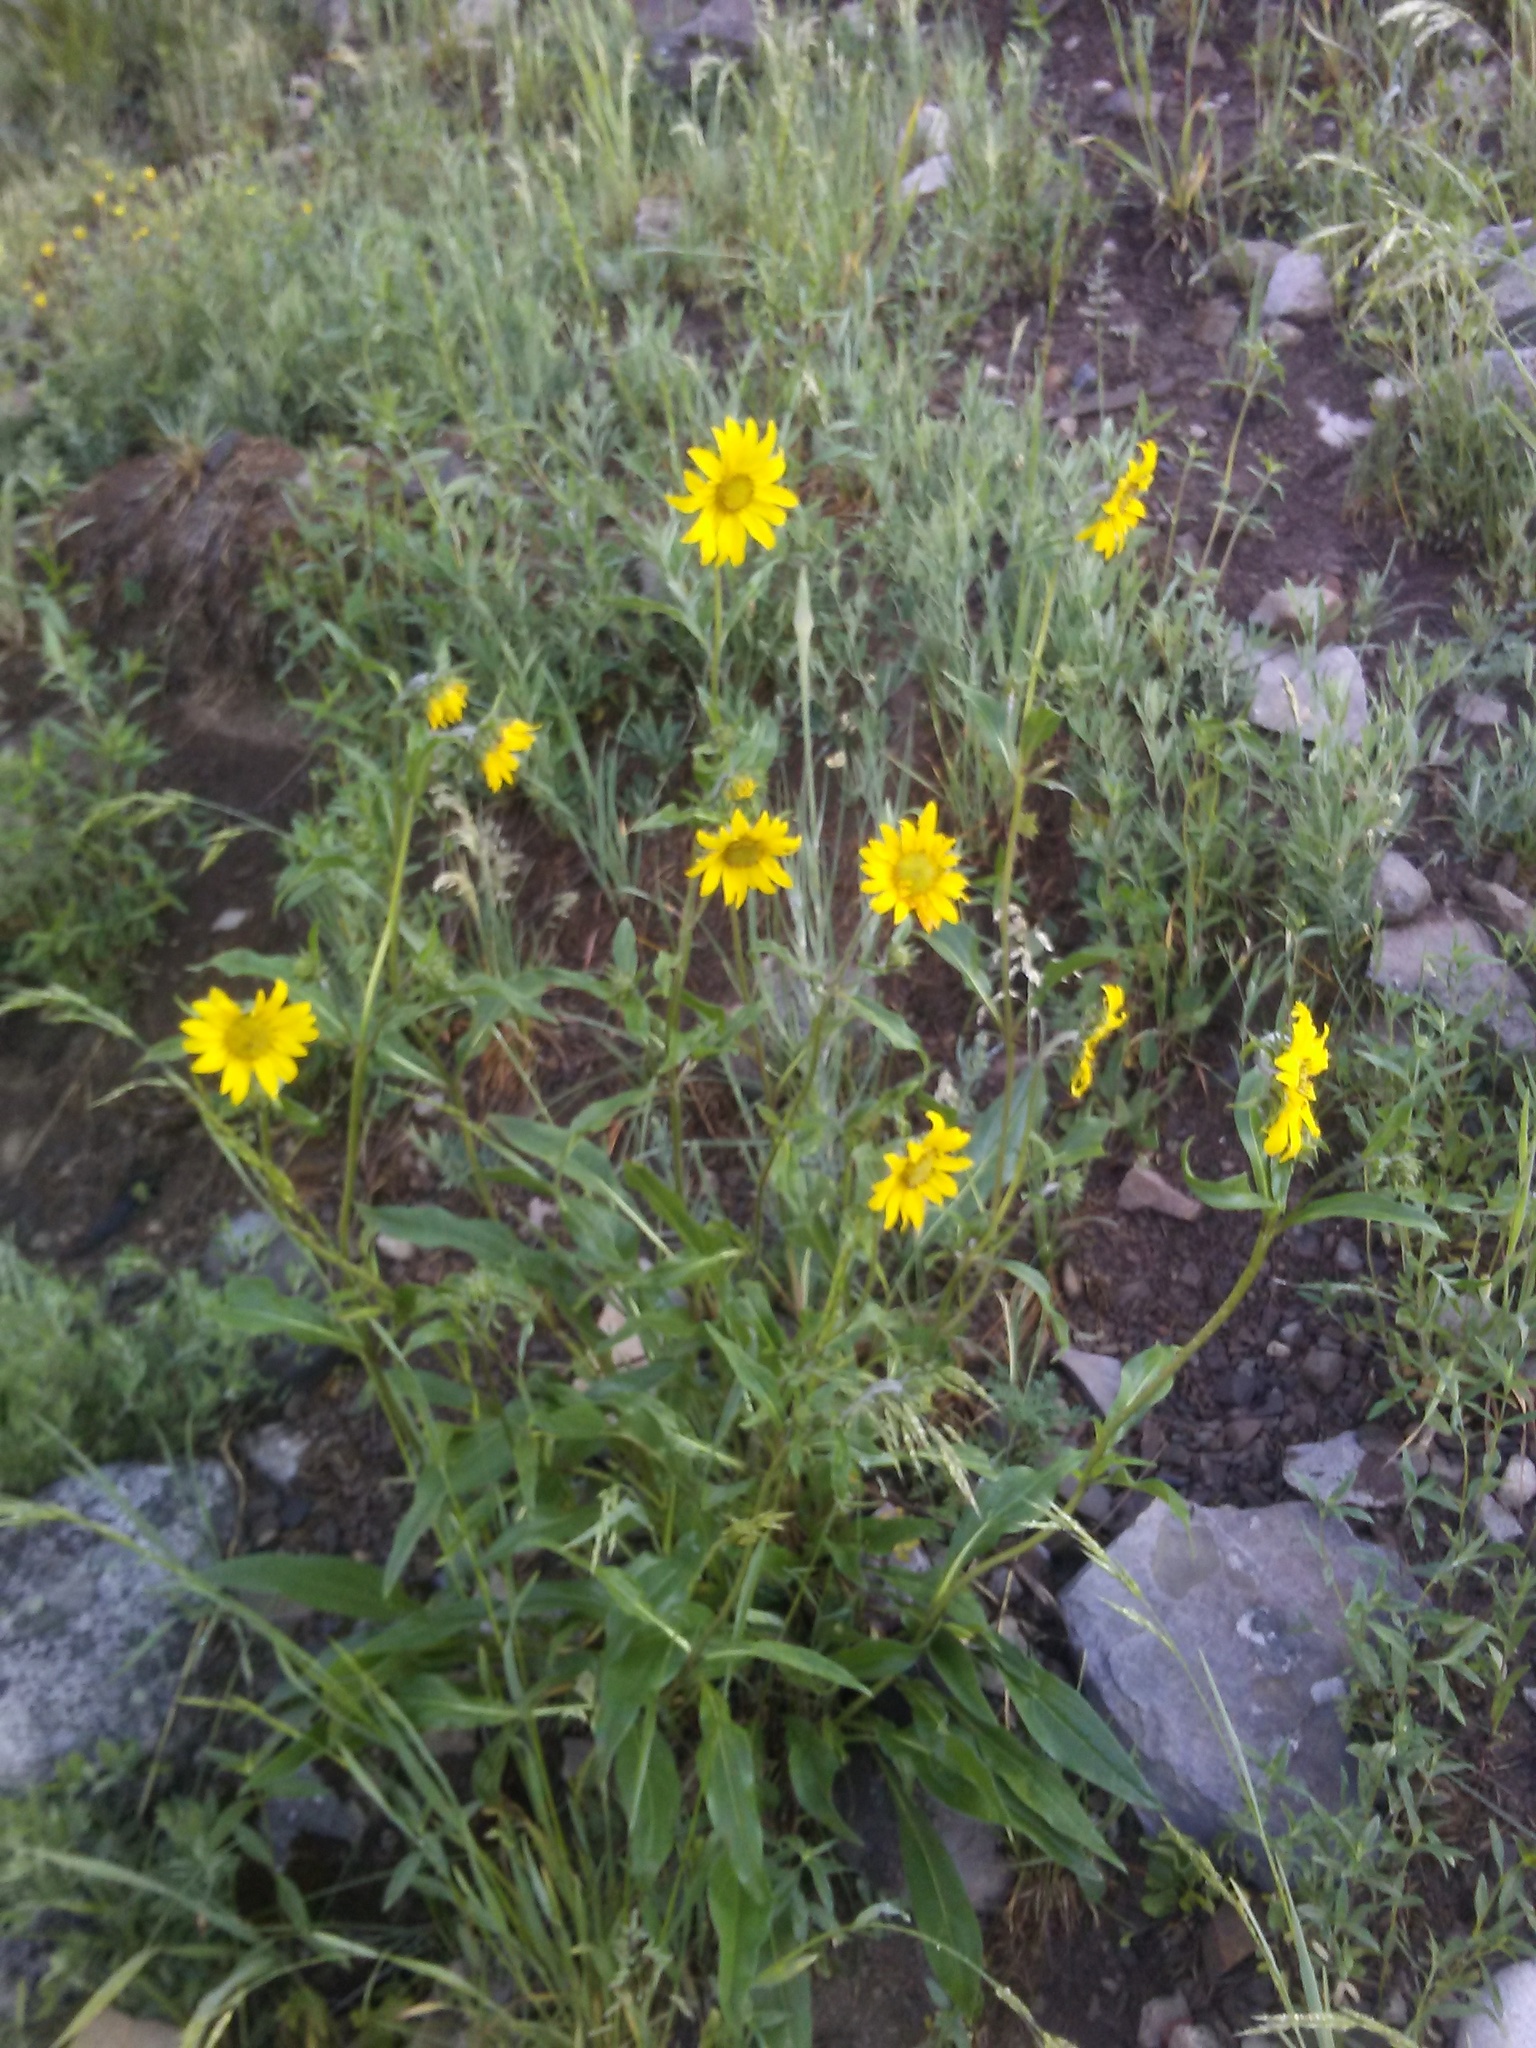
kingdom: Plantae
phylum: Tracheophyta
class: Magnoliopsida
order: Asterales
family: Asteraceae
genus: Helianthella
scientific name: Helianthella quinquenervis
